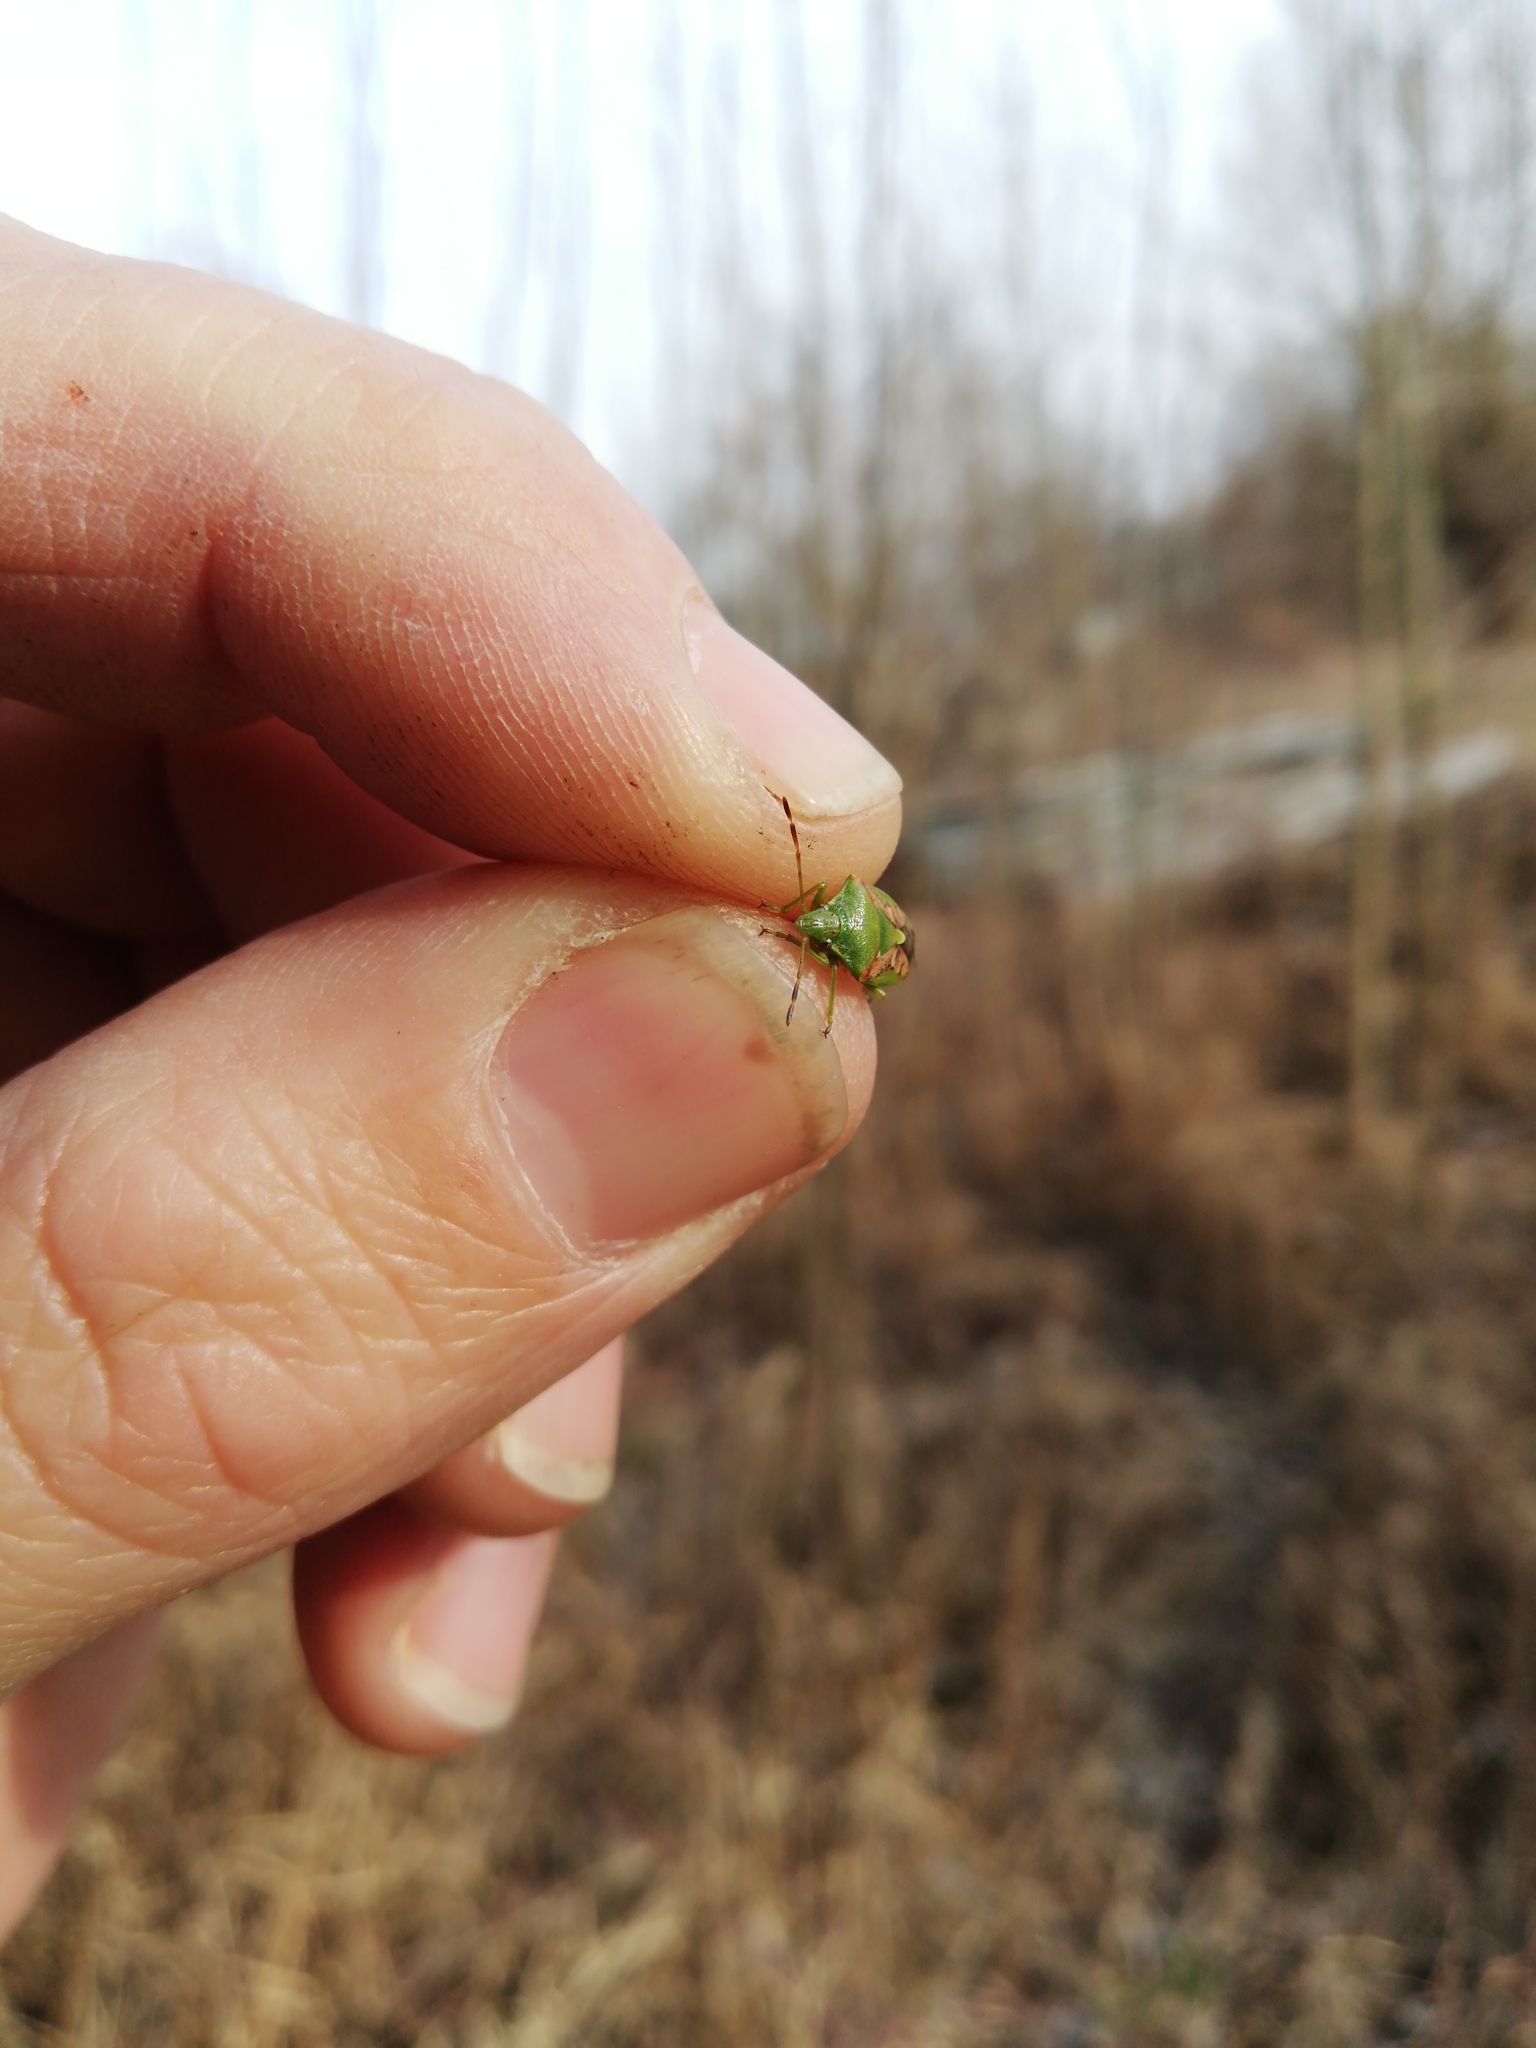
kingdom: Animalia
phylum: Arthropoda
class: Insecta
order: Hemiptera
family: Acanthosomatidae
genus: Cyphostethus
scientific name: Cyphostethus tristriatus
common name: Juniper shieldbug
